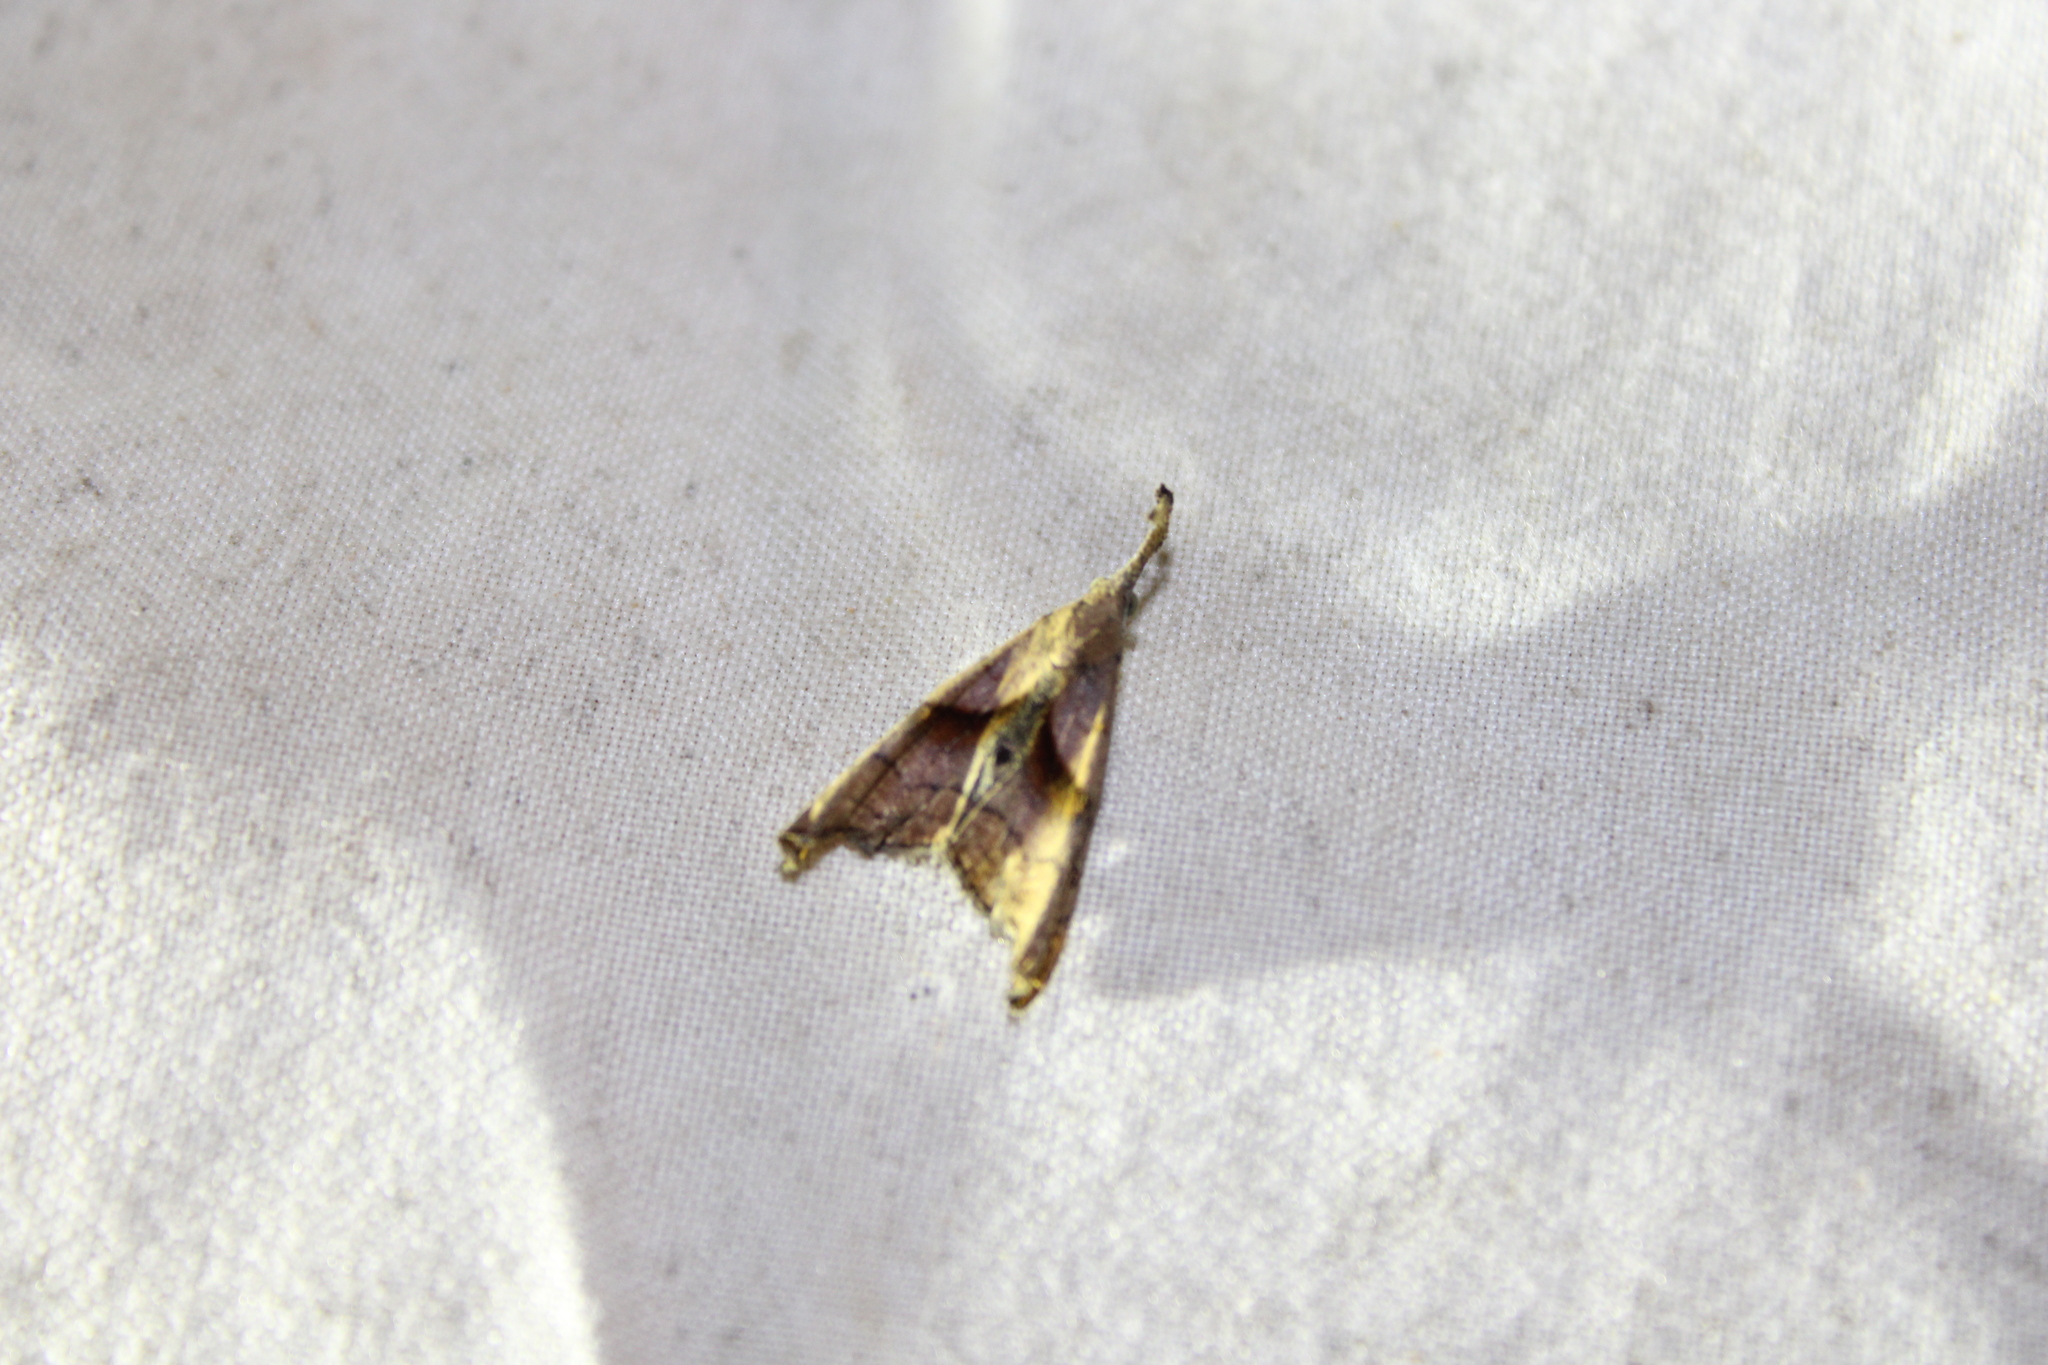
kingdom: Animalia
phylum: Arthropoda
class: Insecta
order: Lepidoptera
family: Erebidae
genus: Palthis
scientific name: Palthis angulalis
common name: Dark-spotted palthis moth
